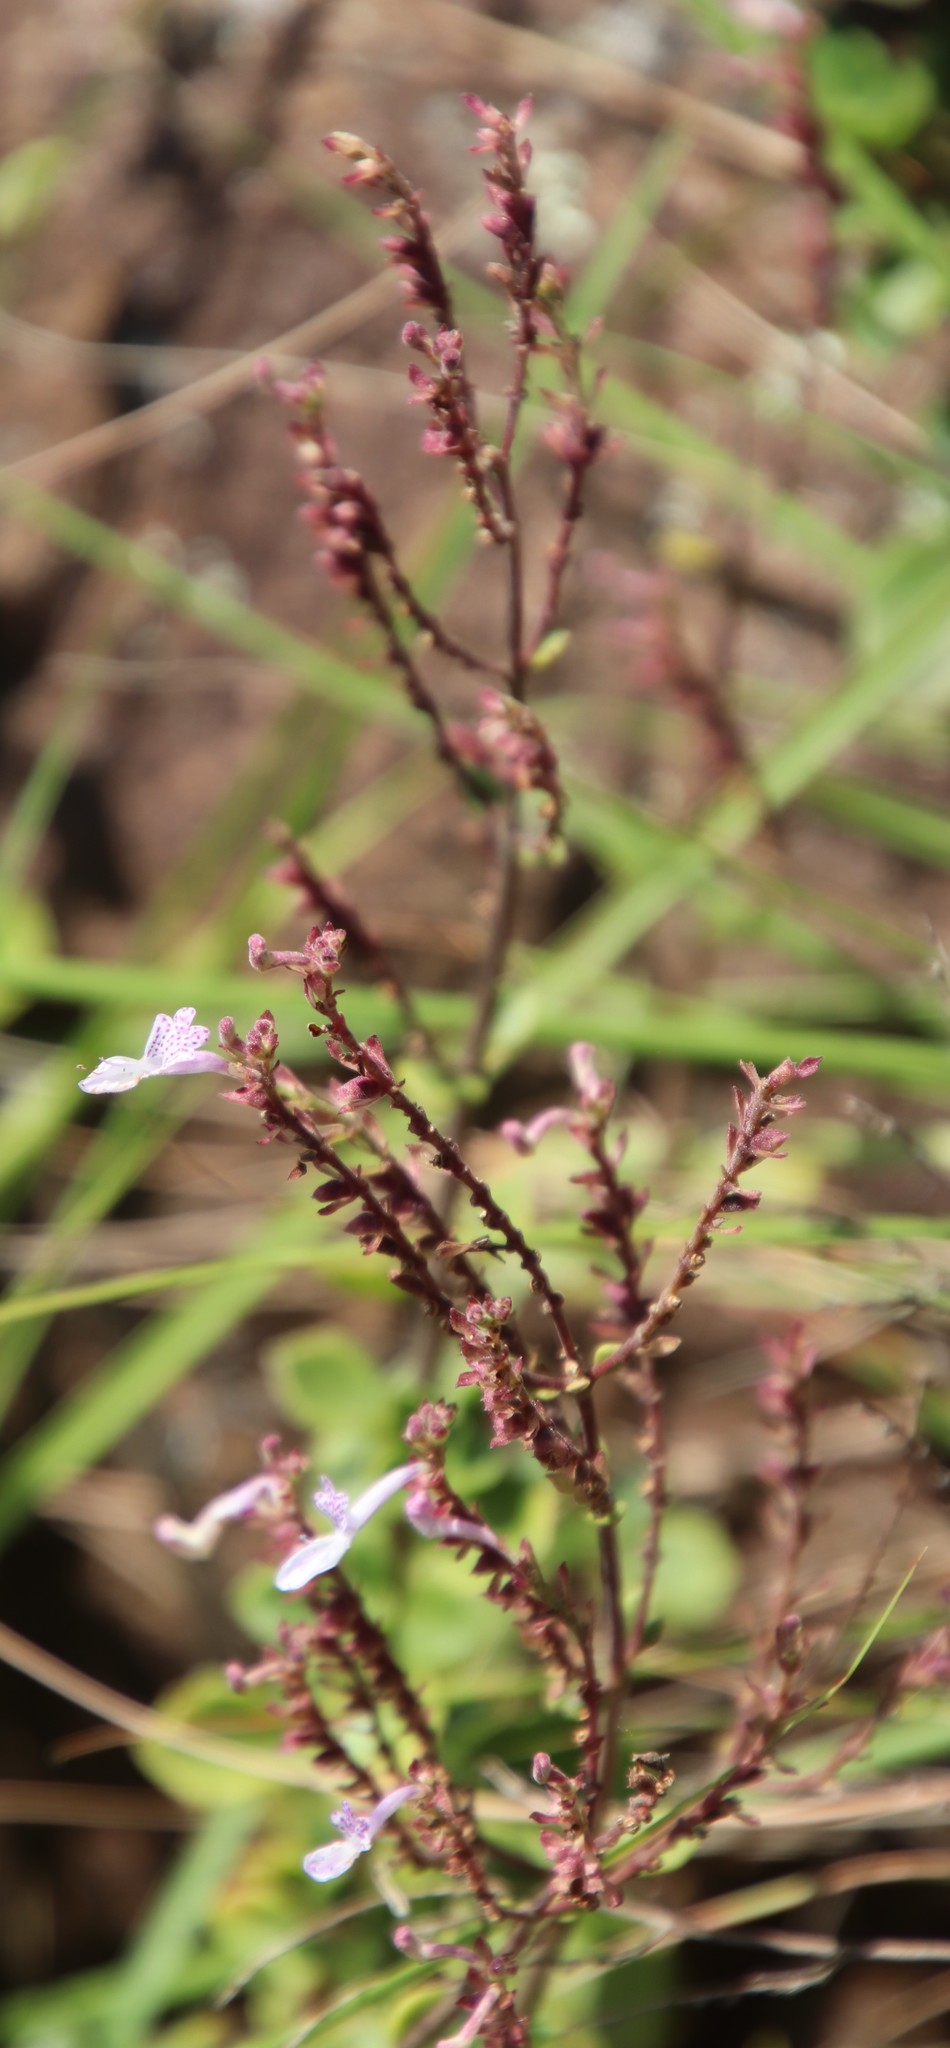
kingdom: Plantae
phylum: Tracheophyta
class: Magnoliopsida
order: Lamiales
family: Lamiaceae
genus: Aeollanthus
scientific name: Aeollanthus rehmannii
